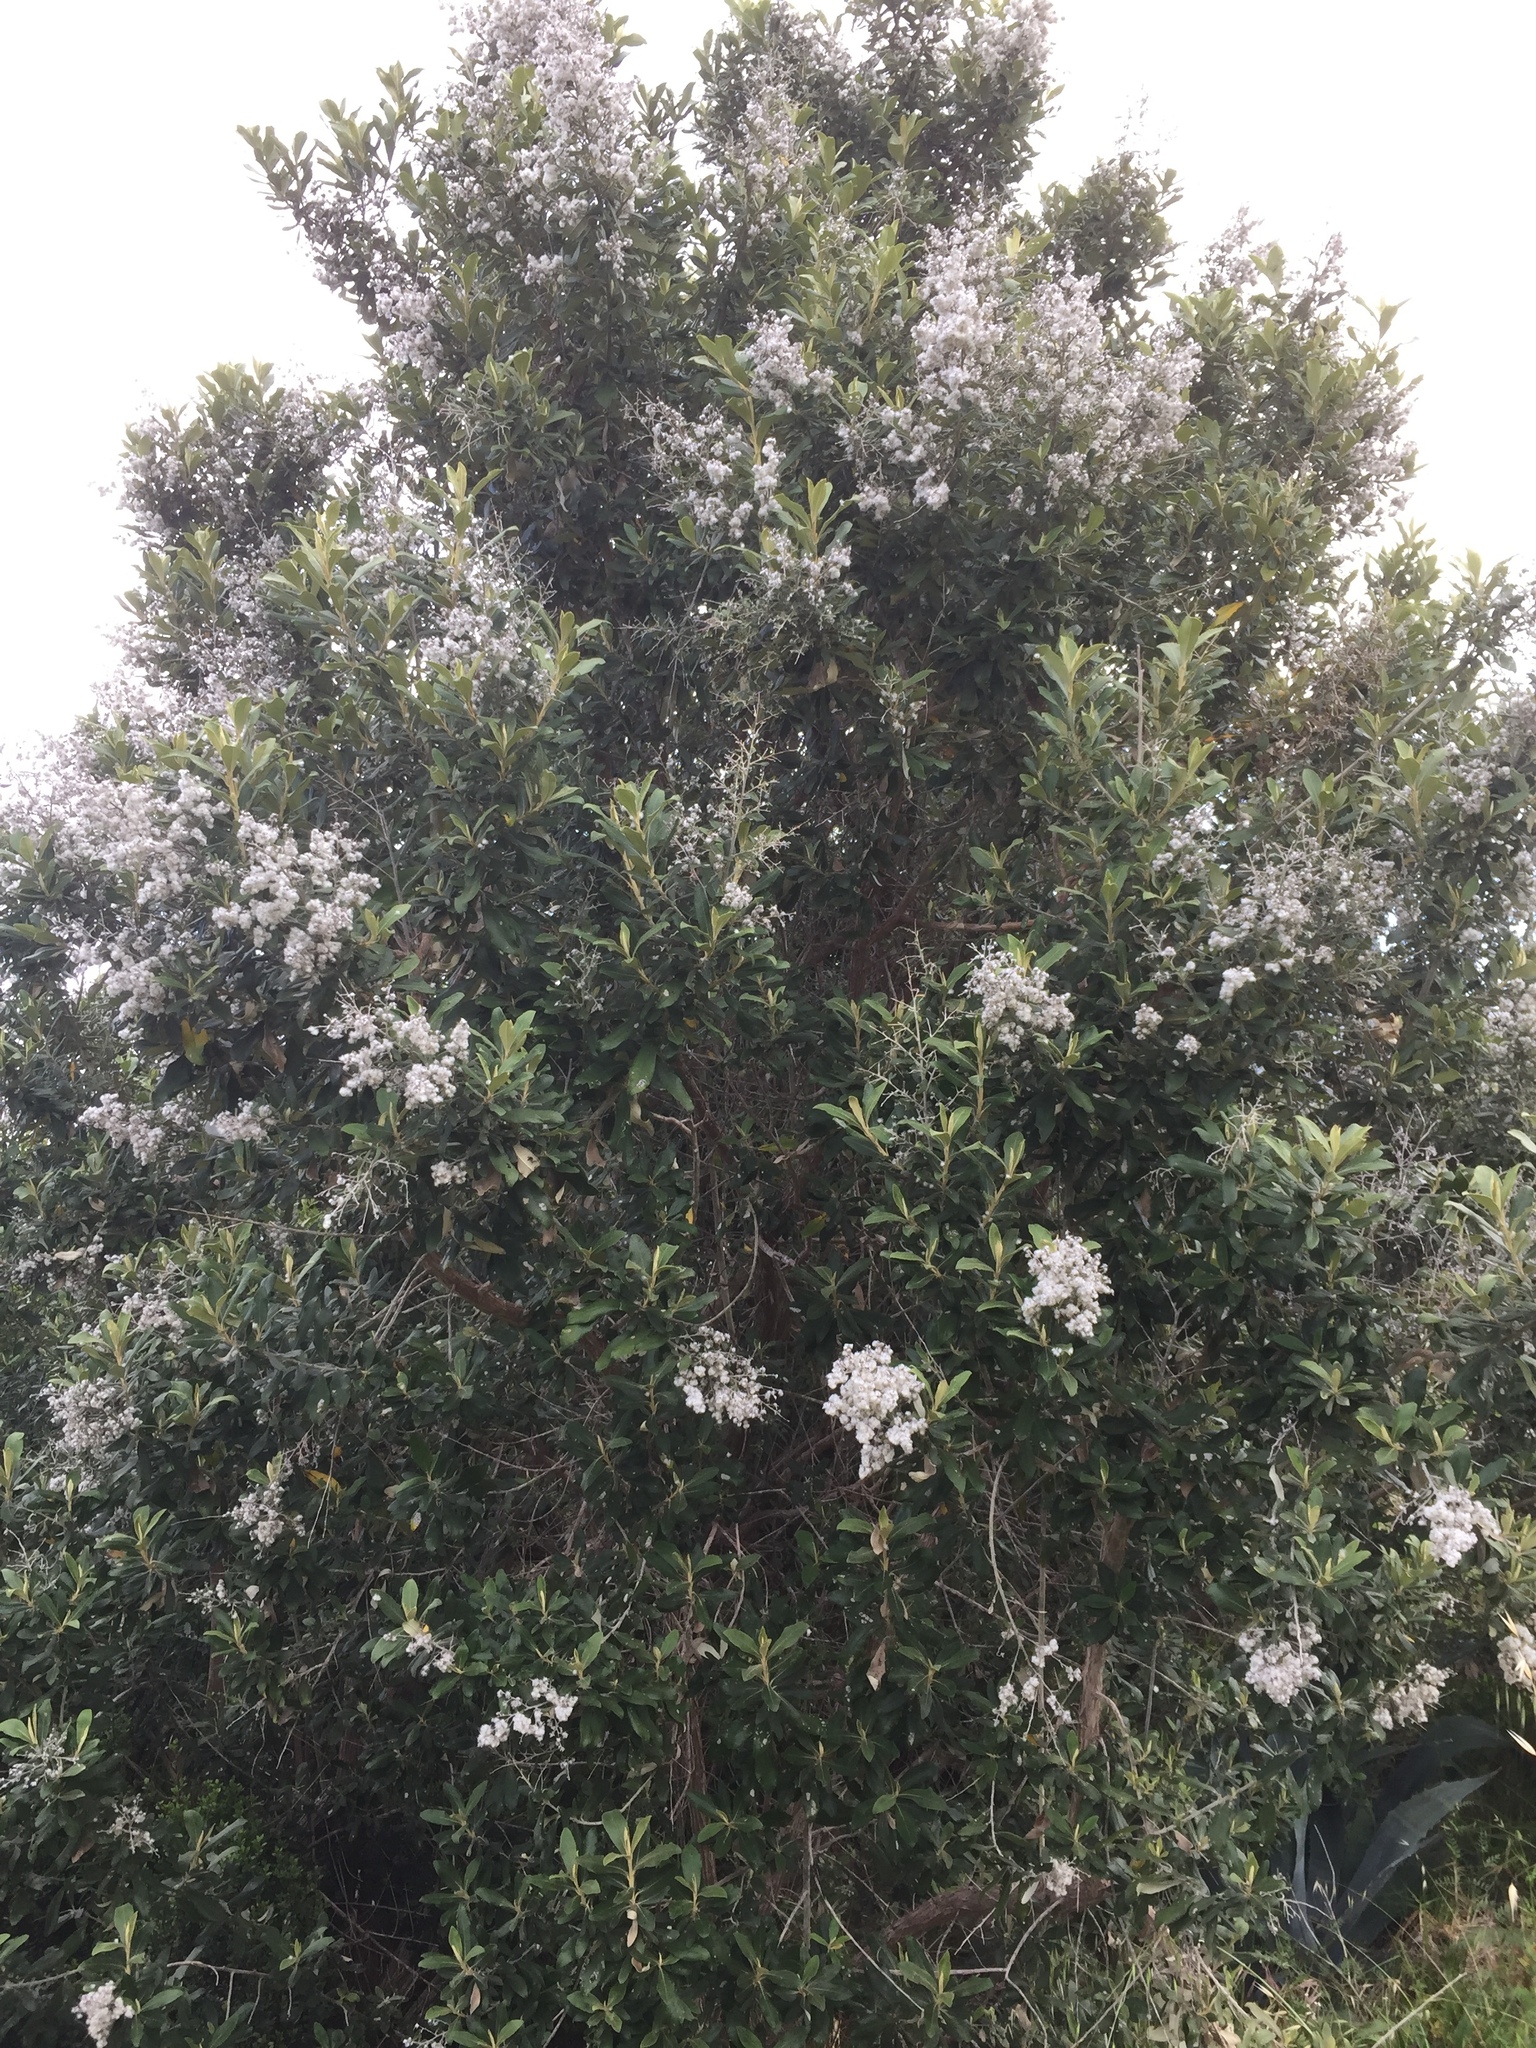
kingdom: Plantae
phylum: Tracheophyta
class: Magnoliopsida
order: Asterales
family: Asteraceae
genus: Tarchonanthus
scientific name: Tarchonanthus littoralis
